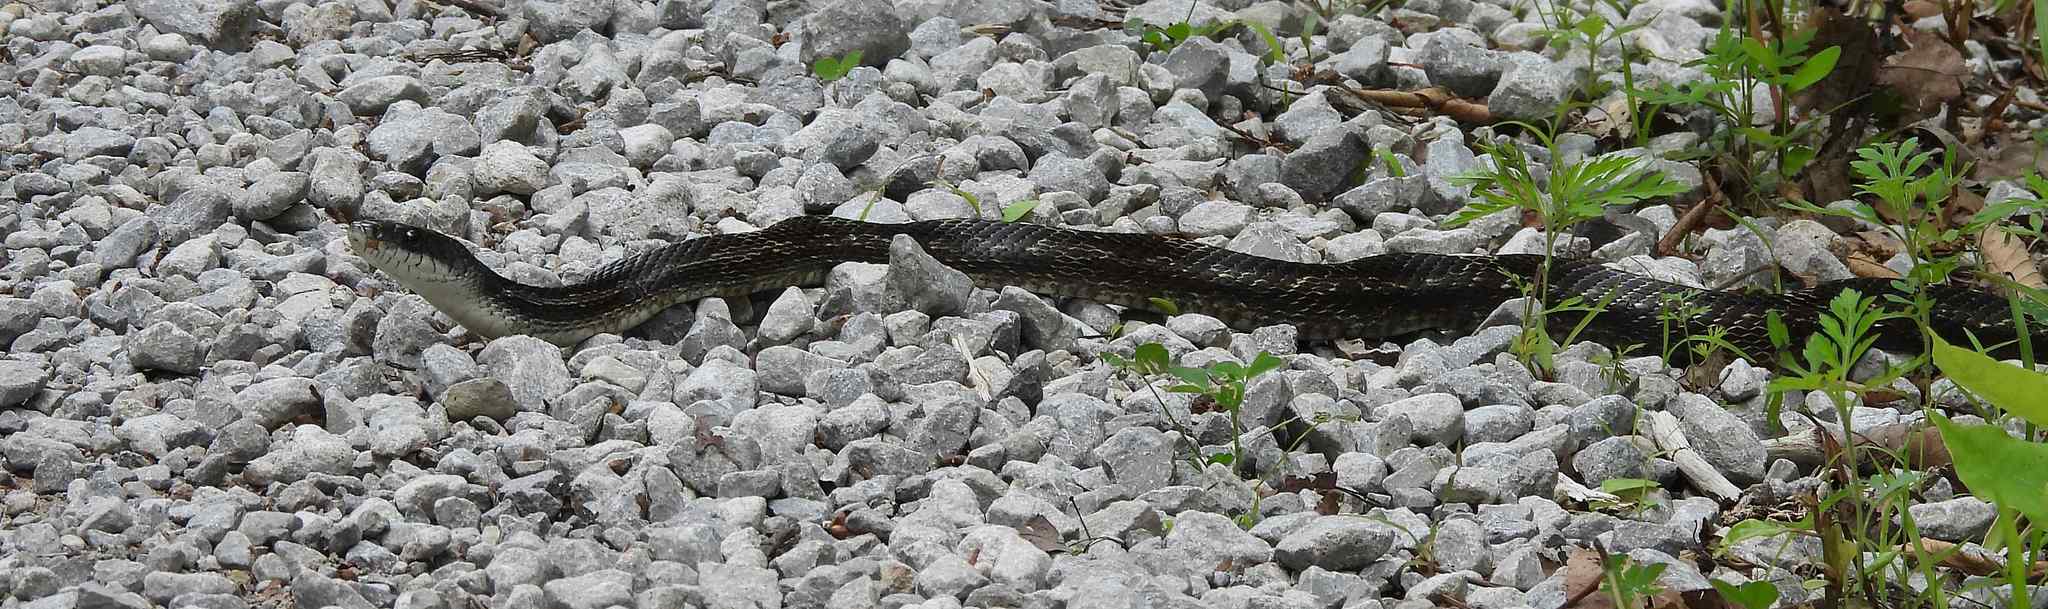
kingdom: Animalia
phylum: Chordata
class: Squamata
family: Colubridae
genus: Pantherophis
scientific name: Pantherophis spiloides
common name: Gray rat snake
